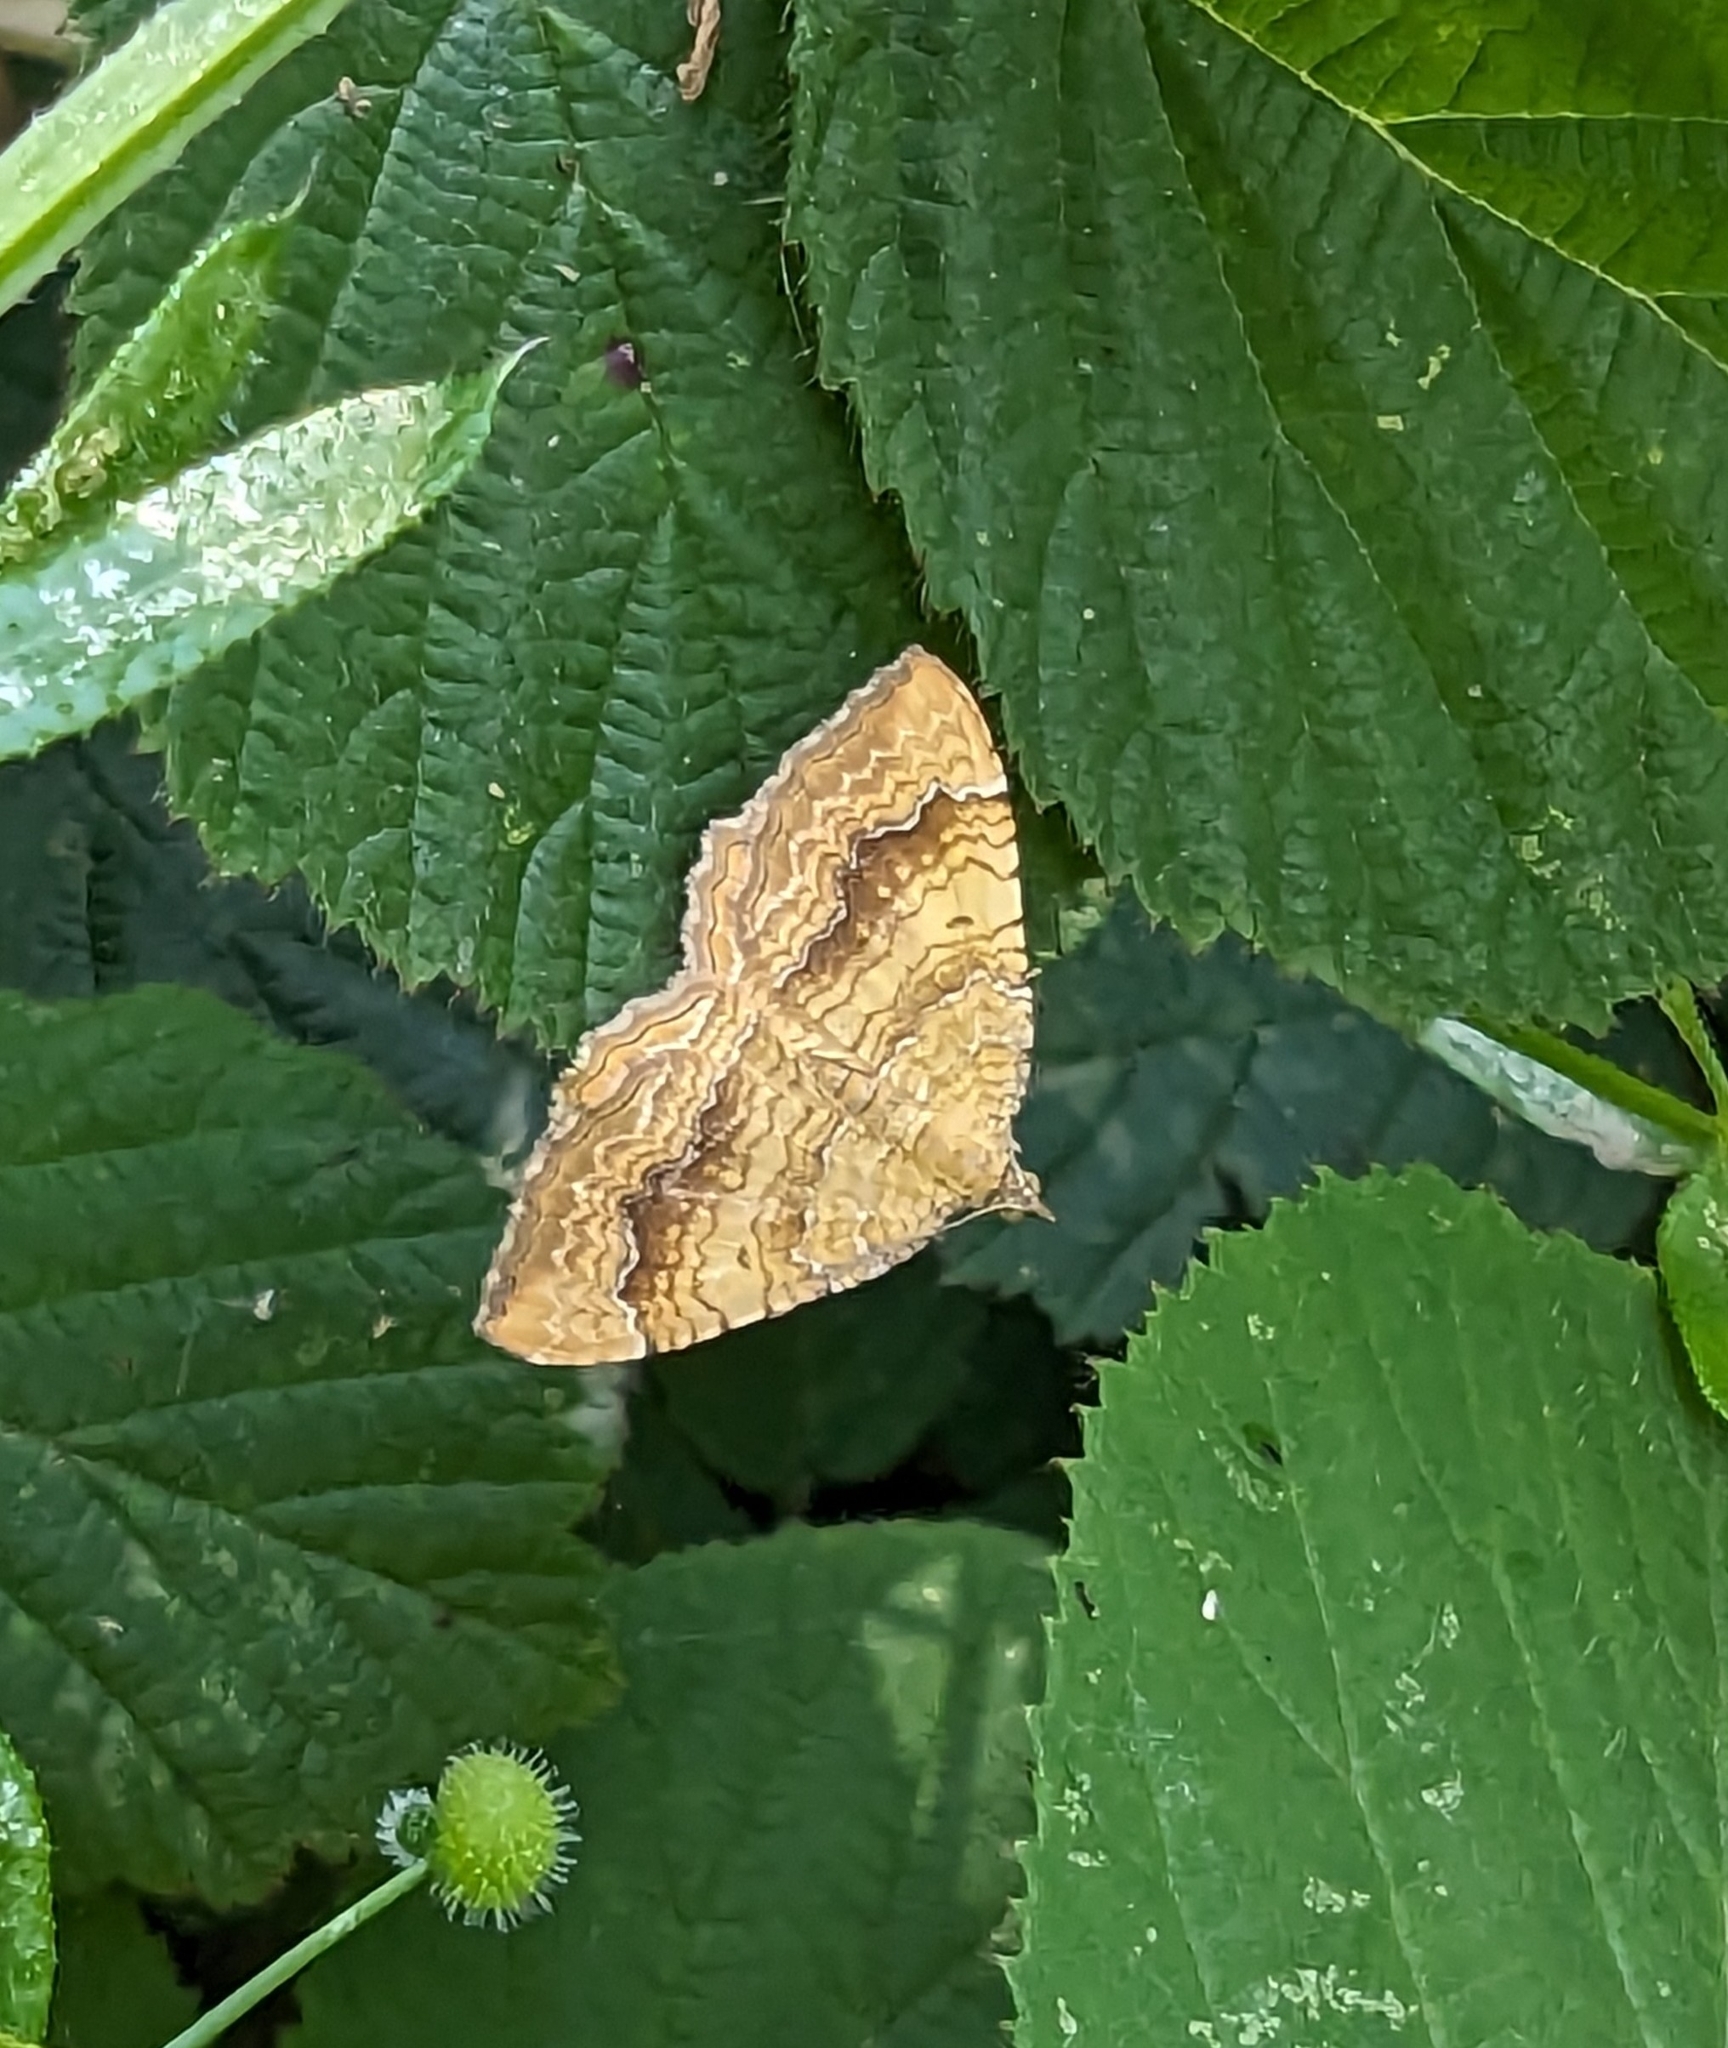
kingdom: Animalia
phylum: Arthropoda
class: Insecta
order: Lepidoptera
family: Geometridae
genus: Camptogramma
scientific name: Camptogramma bilineata
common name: Yellow shell
